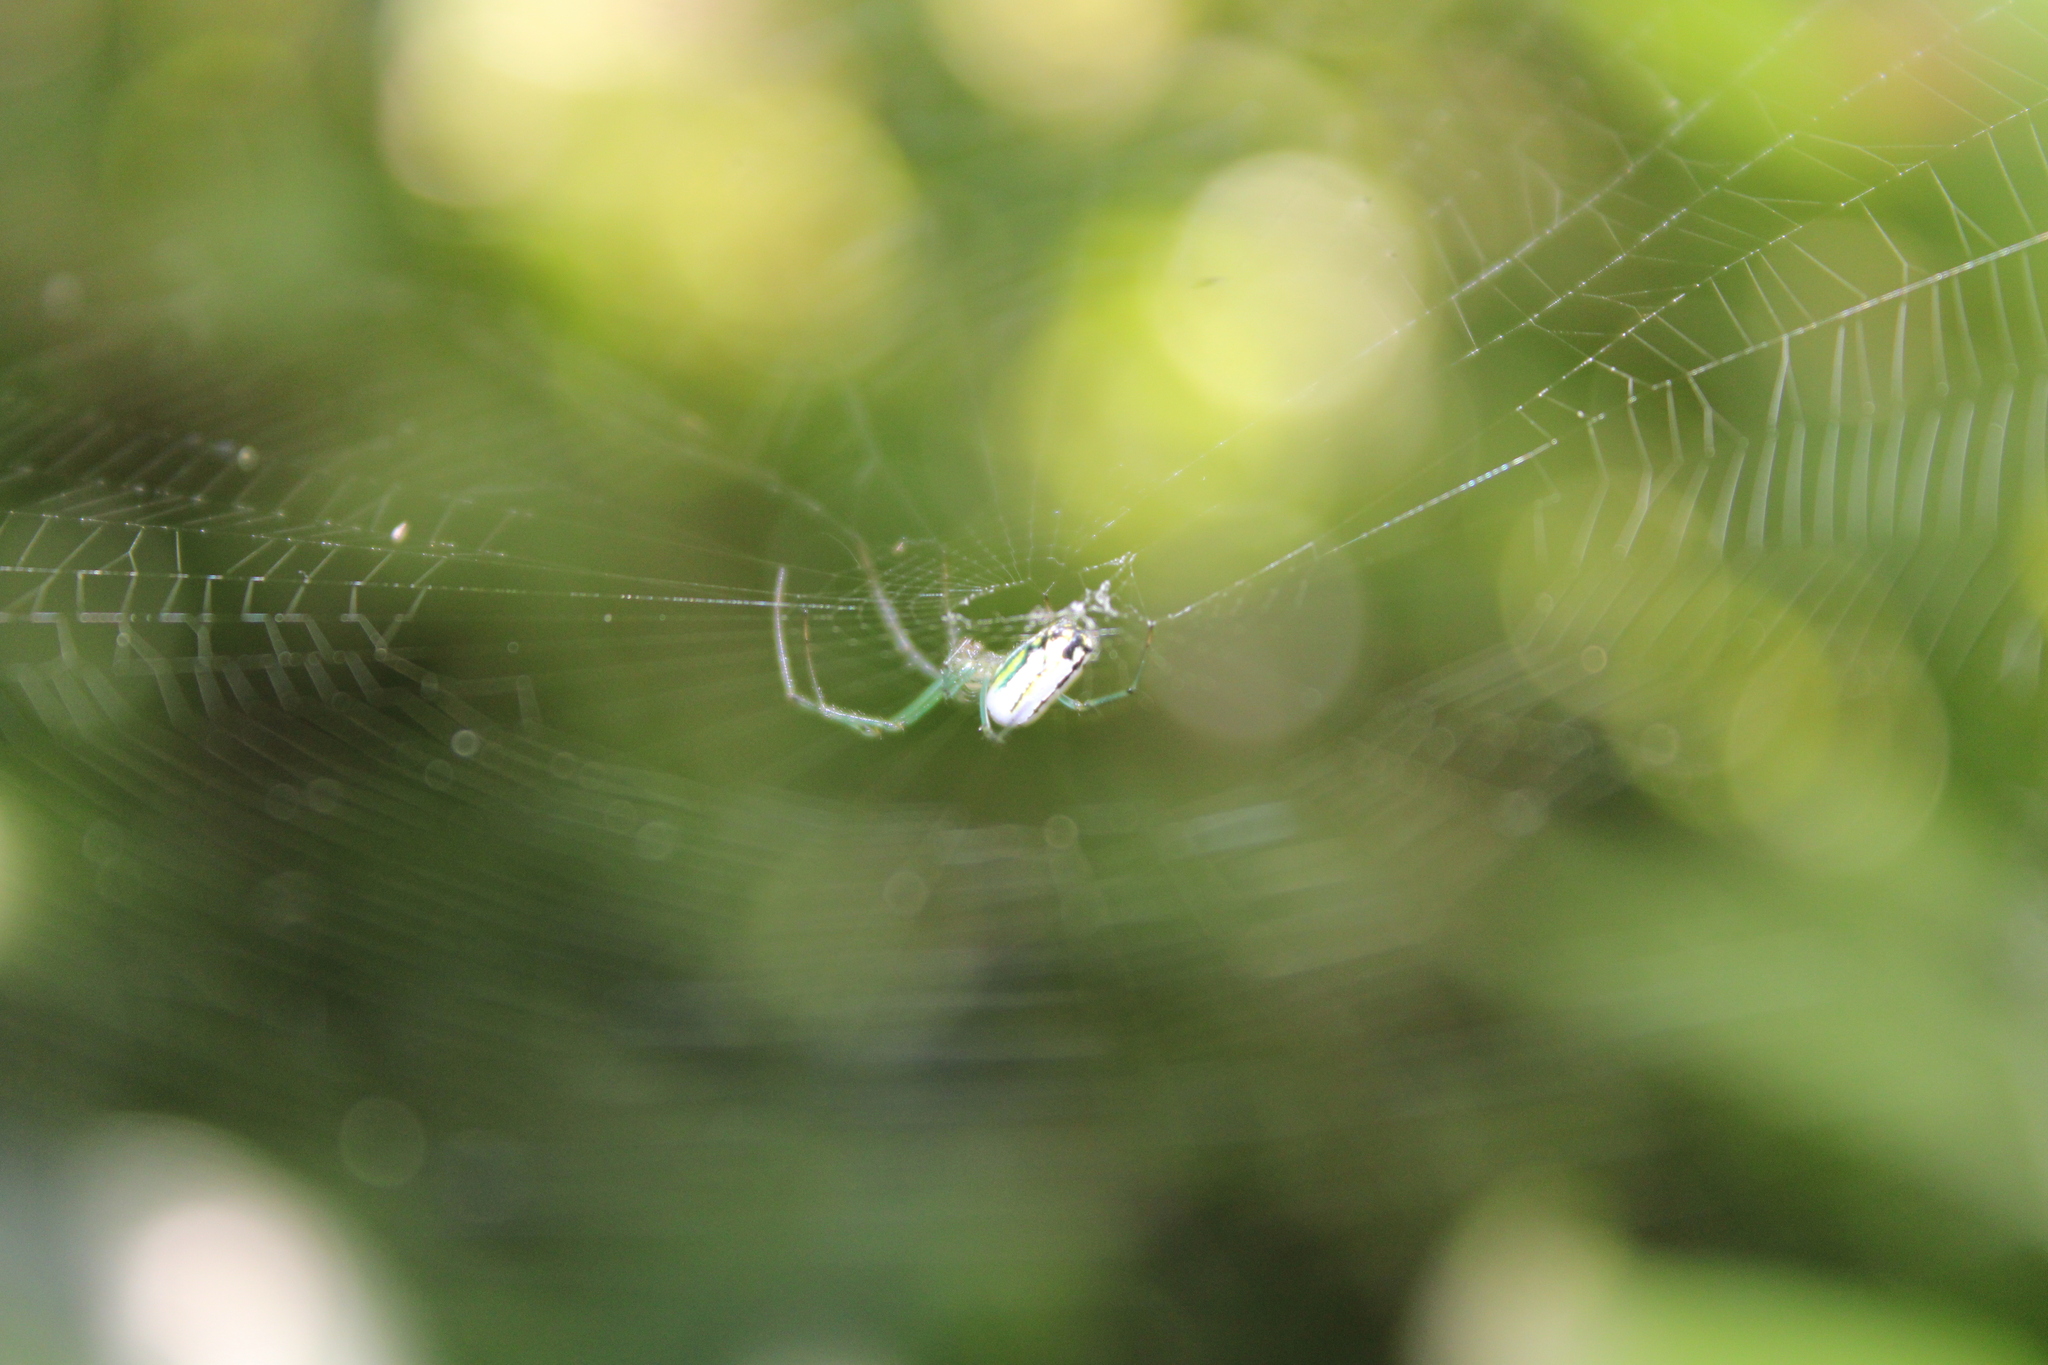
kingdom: Animalia
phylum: Arthropoda
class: Arachnida
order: Araneae
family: Tetragnathidae
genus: Leucauge
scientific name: Leucauge venusta
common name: Longjawed orb weavers
